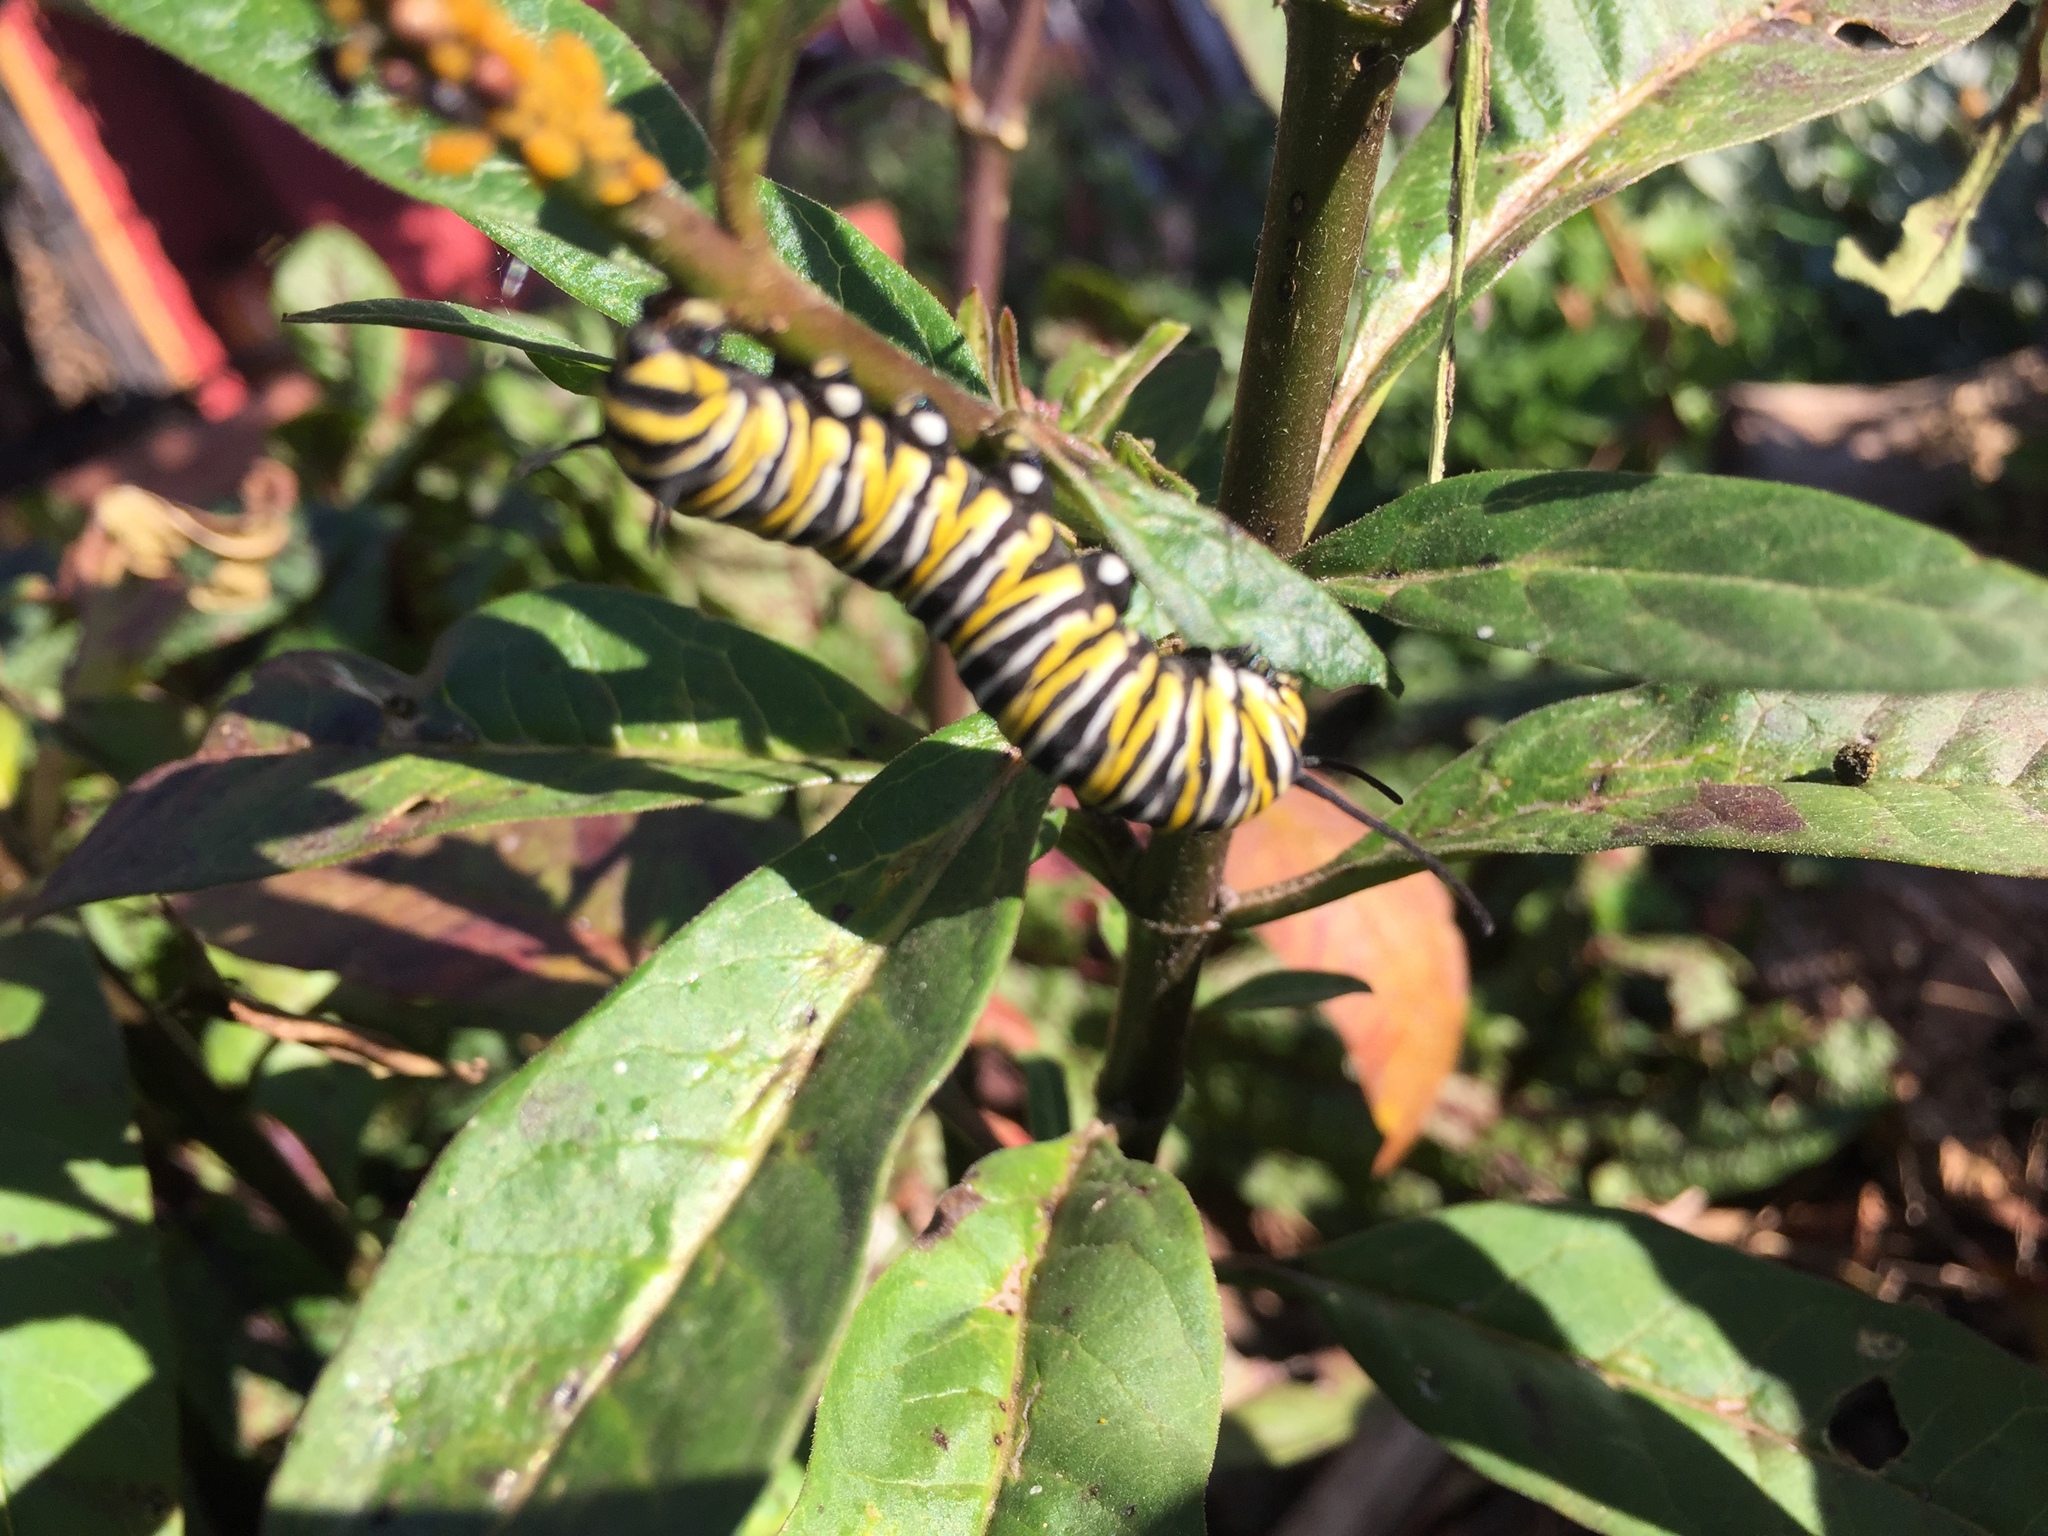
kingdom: Animalia
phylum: Arthropoda
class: Insecta
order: Lepidoptera
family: Nymphalidae
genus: Danaus
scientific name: Danaus plexippus
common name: Monarch
